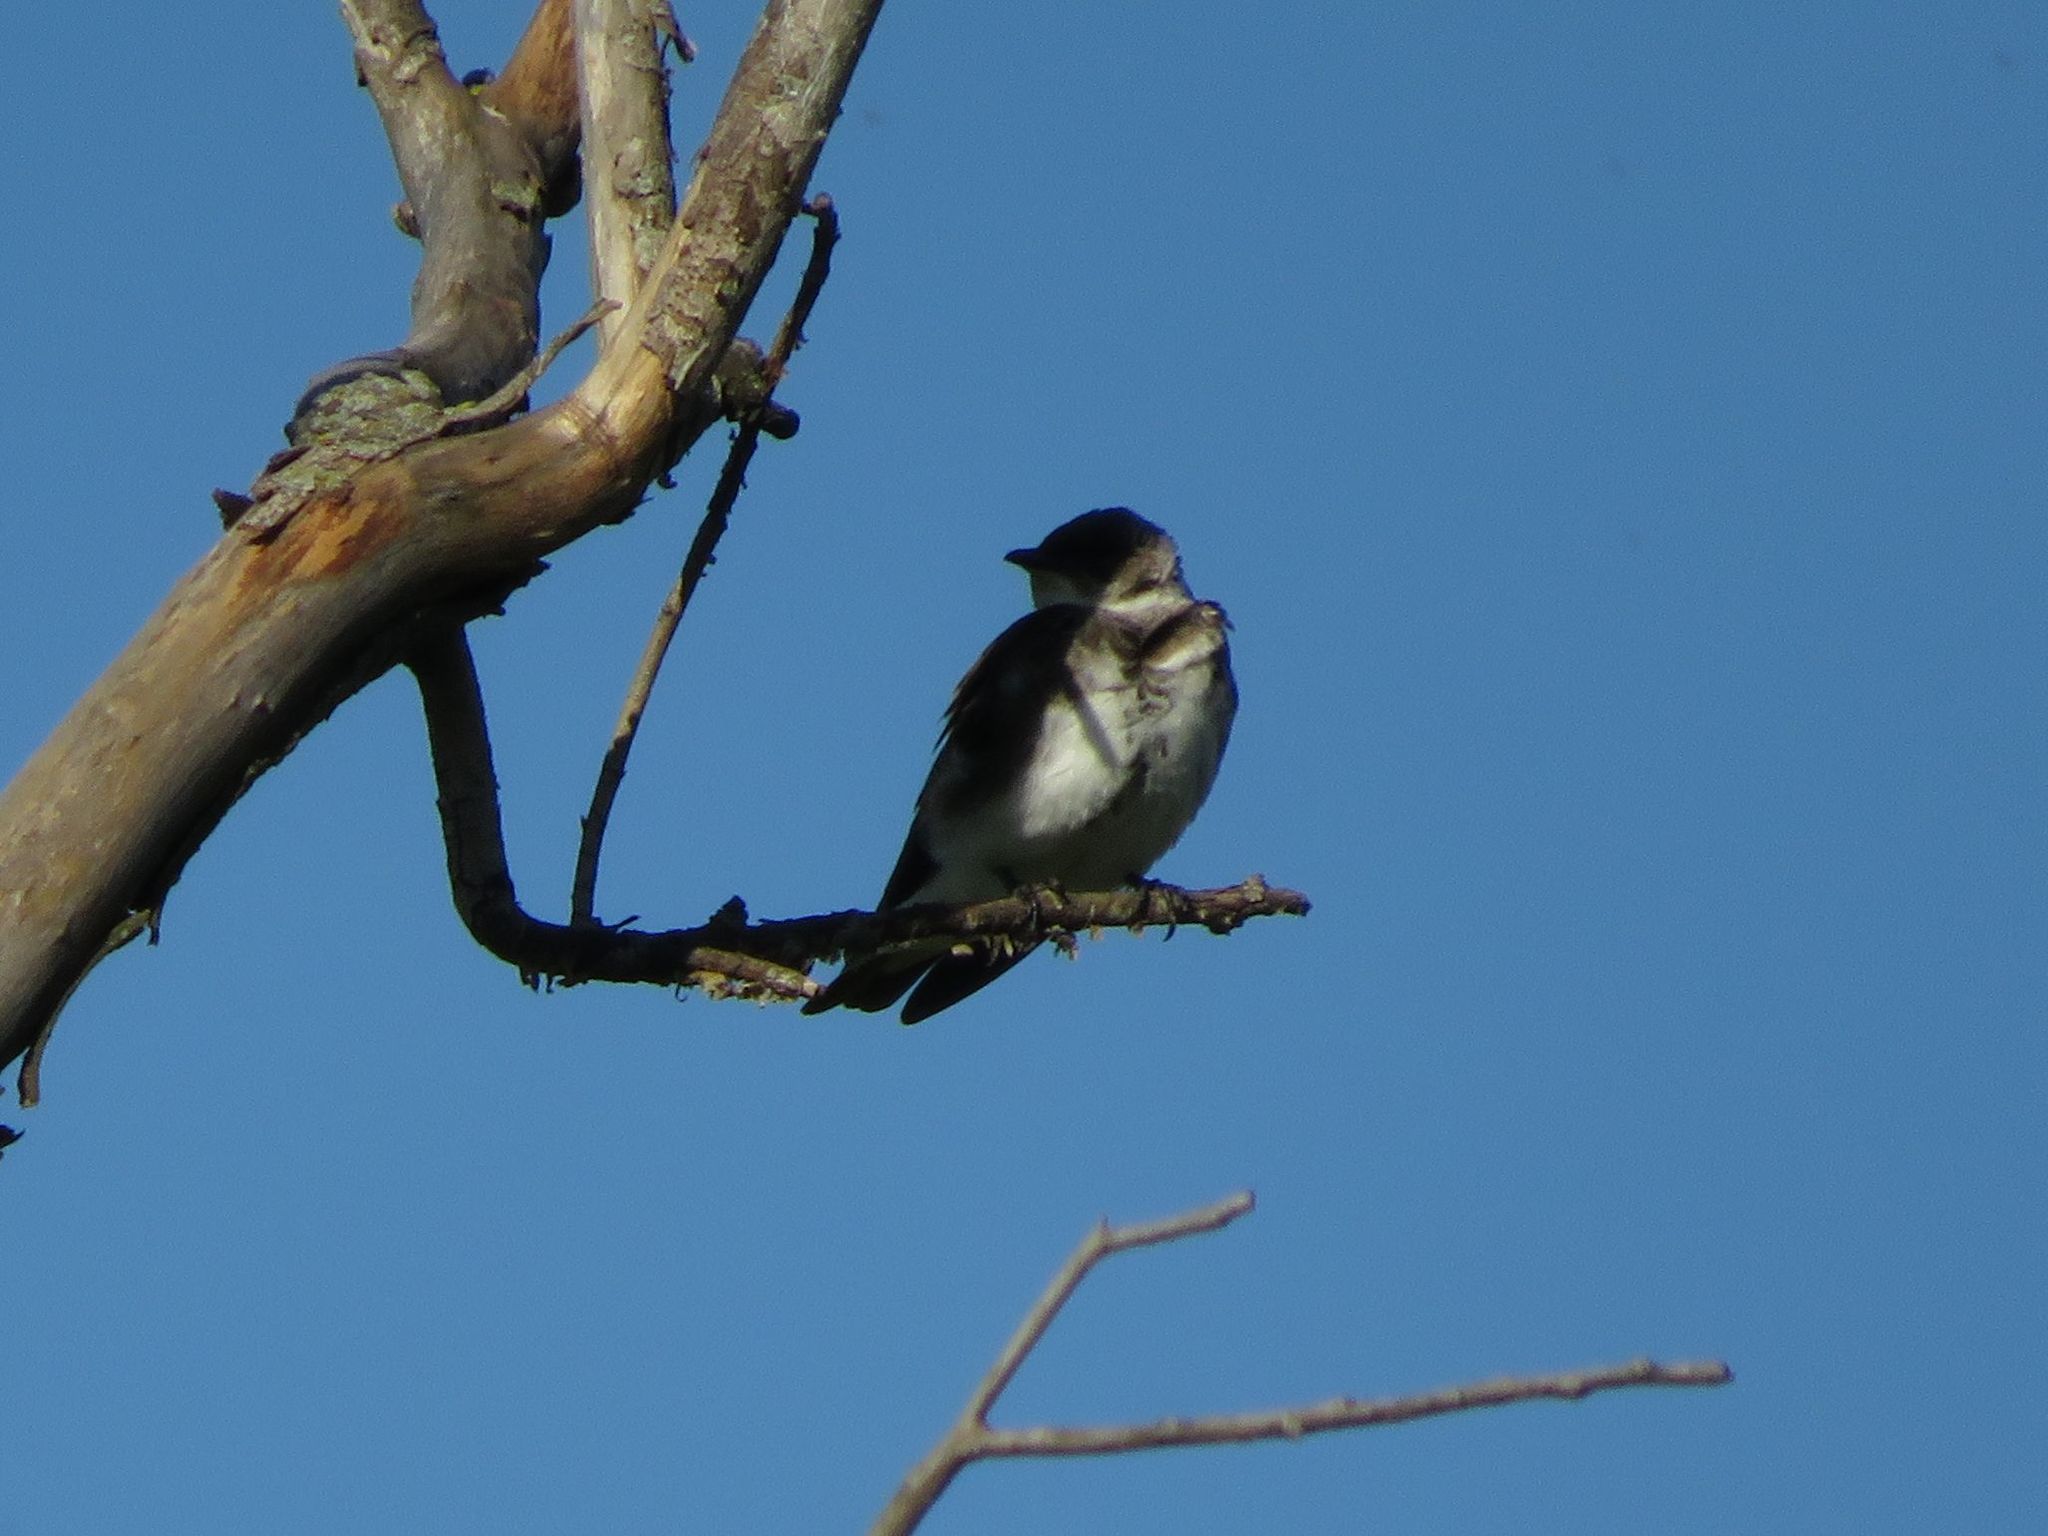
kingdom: Animalia
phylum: Chordata
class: Aves
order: Passeriformes
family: Hirundinidae
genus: Progne
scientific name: Progne tapera
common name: Brown-chested martin
